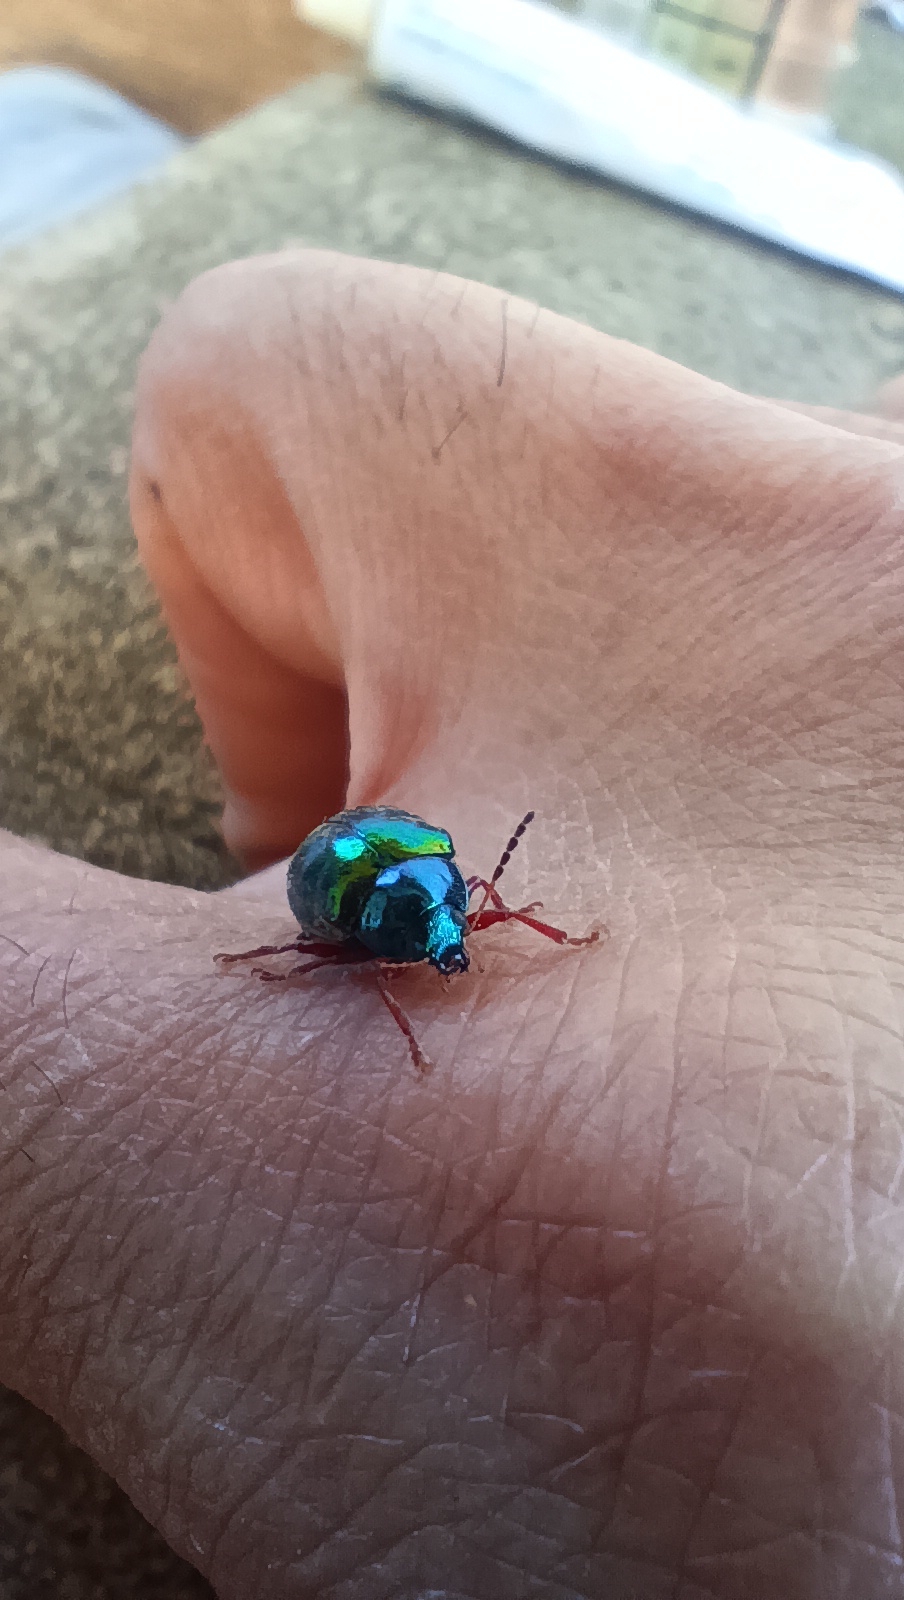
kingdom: Animalia
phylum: Arthropoda
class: Insecta
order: Coleoptera
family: Chrysomelidae
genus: Iphimeis
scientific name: Iphimeis
